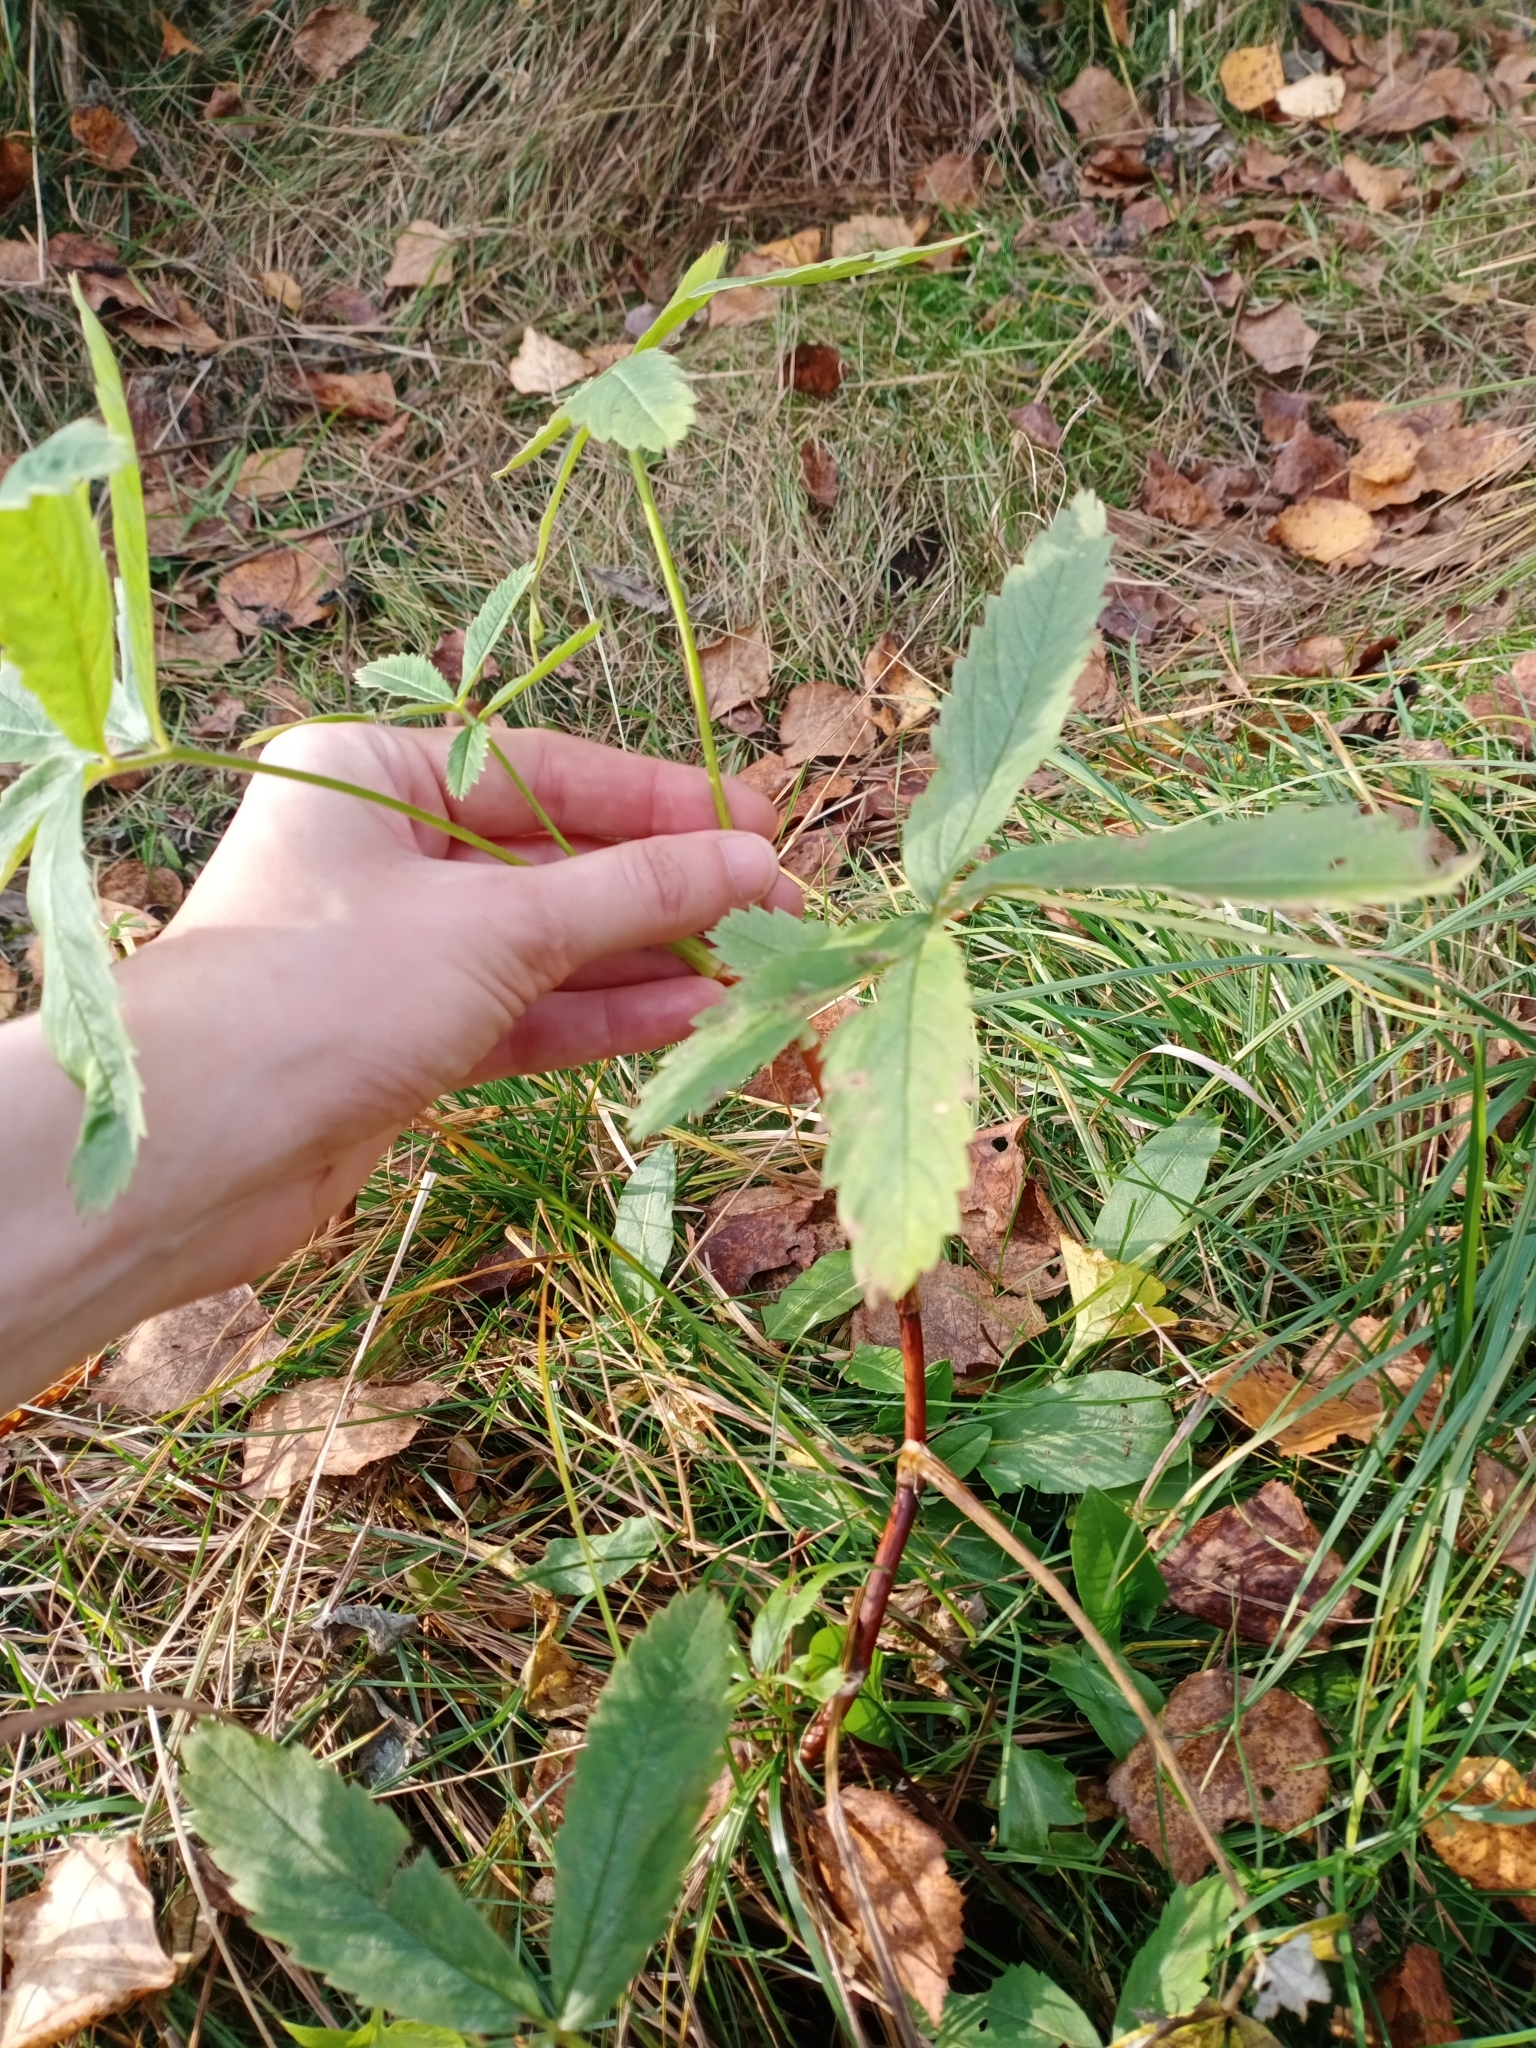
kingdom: Plantae
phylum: Tracheophyta
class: Magnoliopsida
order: Rosales
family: Rosaceae
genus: Comarum
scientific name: Comarum palustre
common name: Marsh cinquefoil
